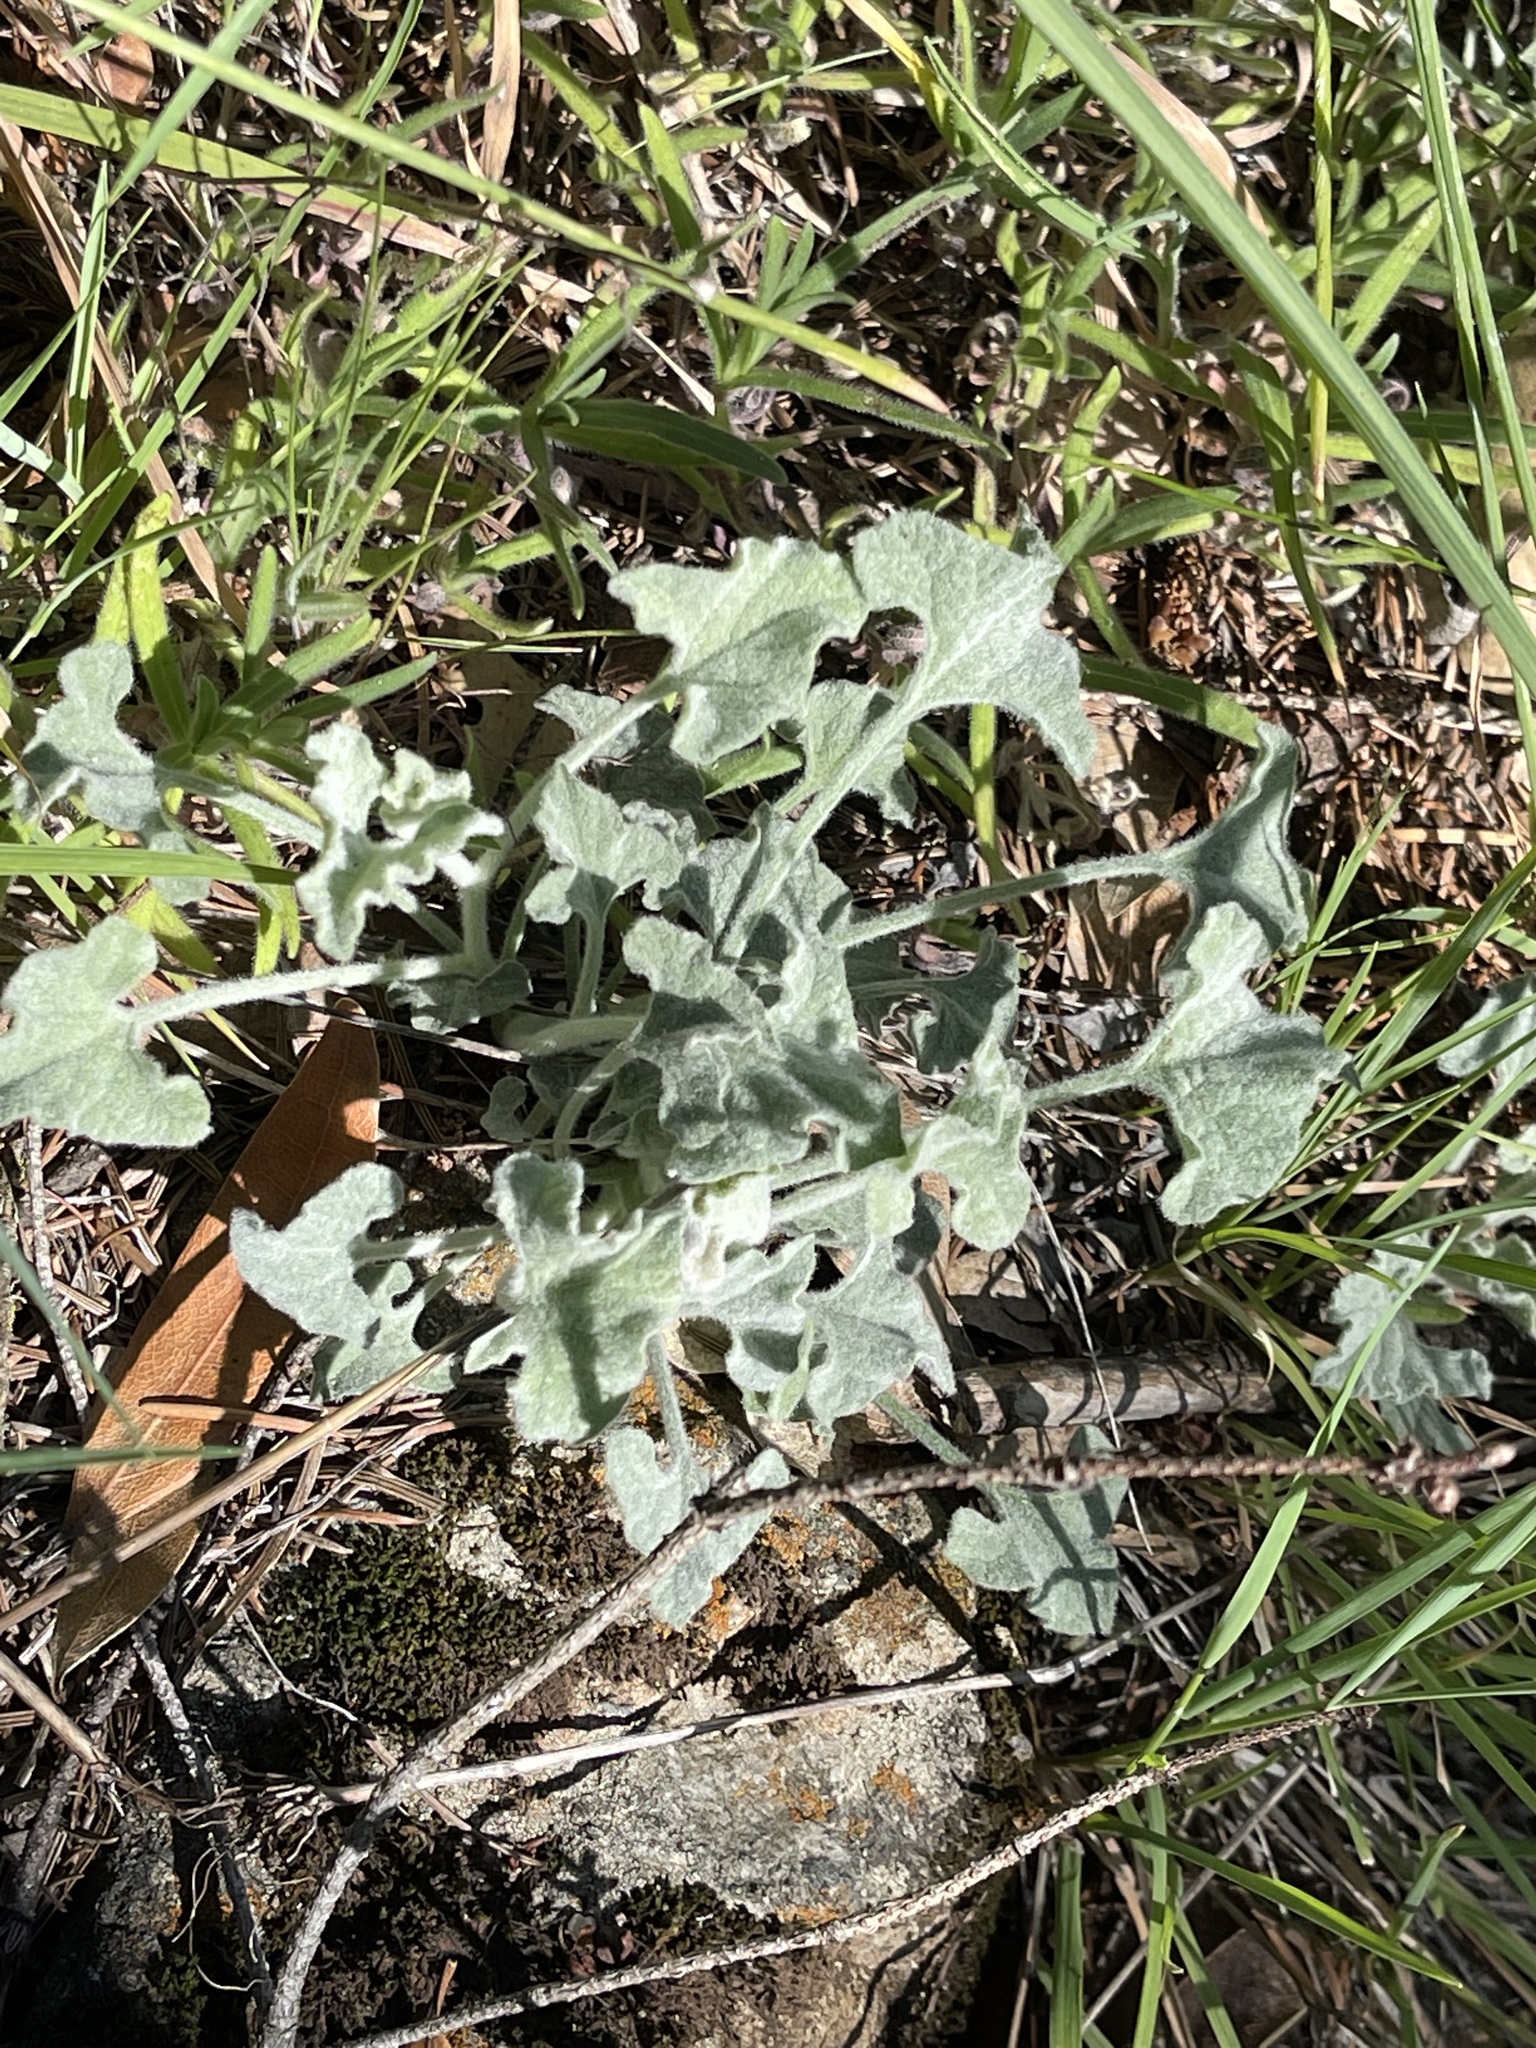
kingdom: Plantae
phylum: Tracheophyta
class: Magnoliopsida
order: Solanales
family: Convolvulaceae
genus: Calystegia
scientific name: Calystegia collina
